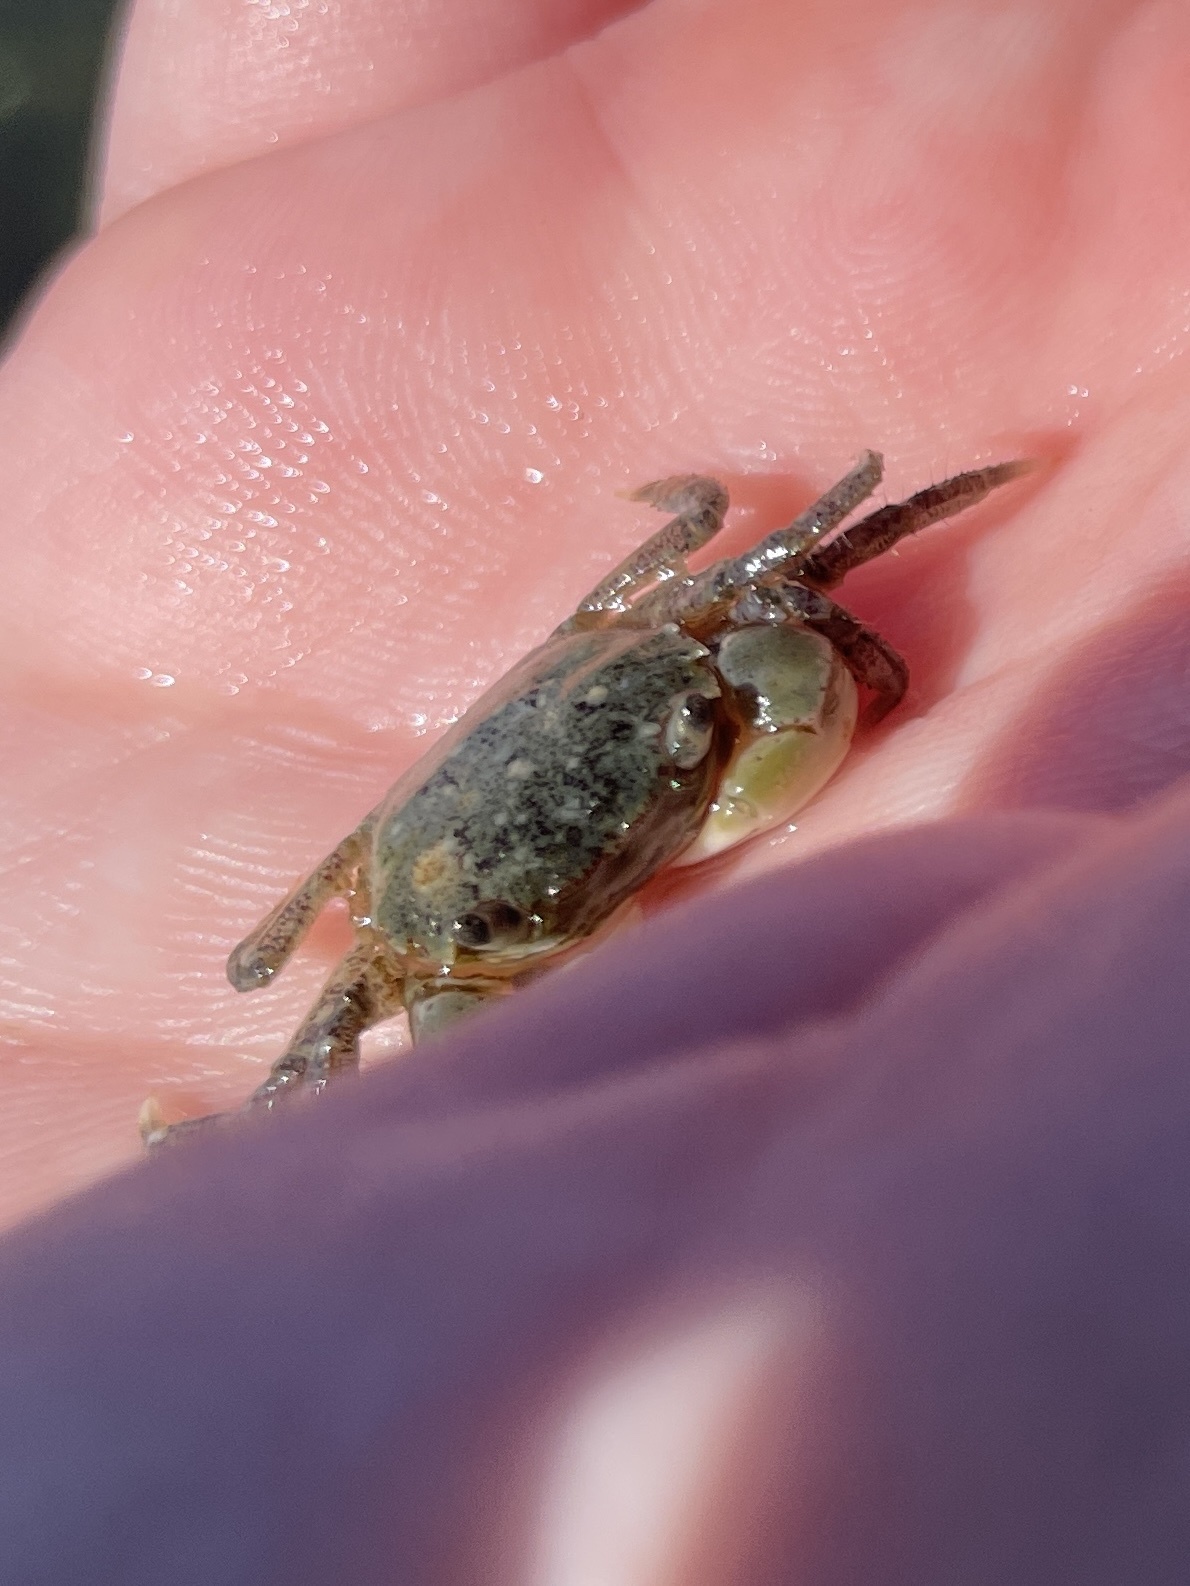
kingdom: Animalia
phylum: Arthropoda
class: Malacostraca
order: Decapoda
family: Varunidae
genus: Hemigrapsus
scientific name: Hemigrapsus oregonensis
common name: Yellow shore crab
